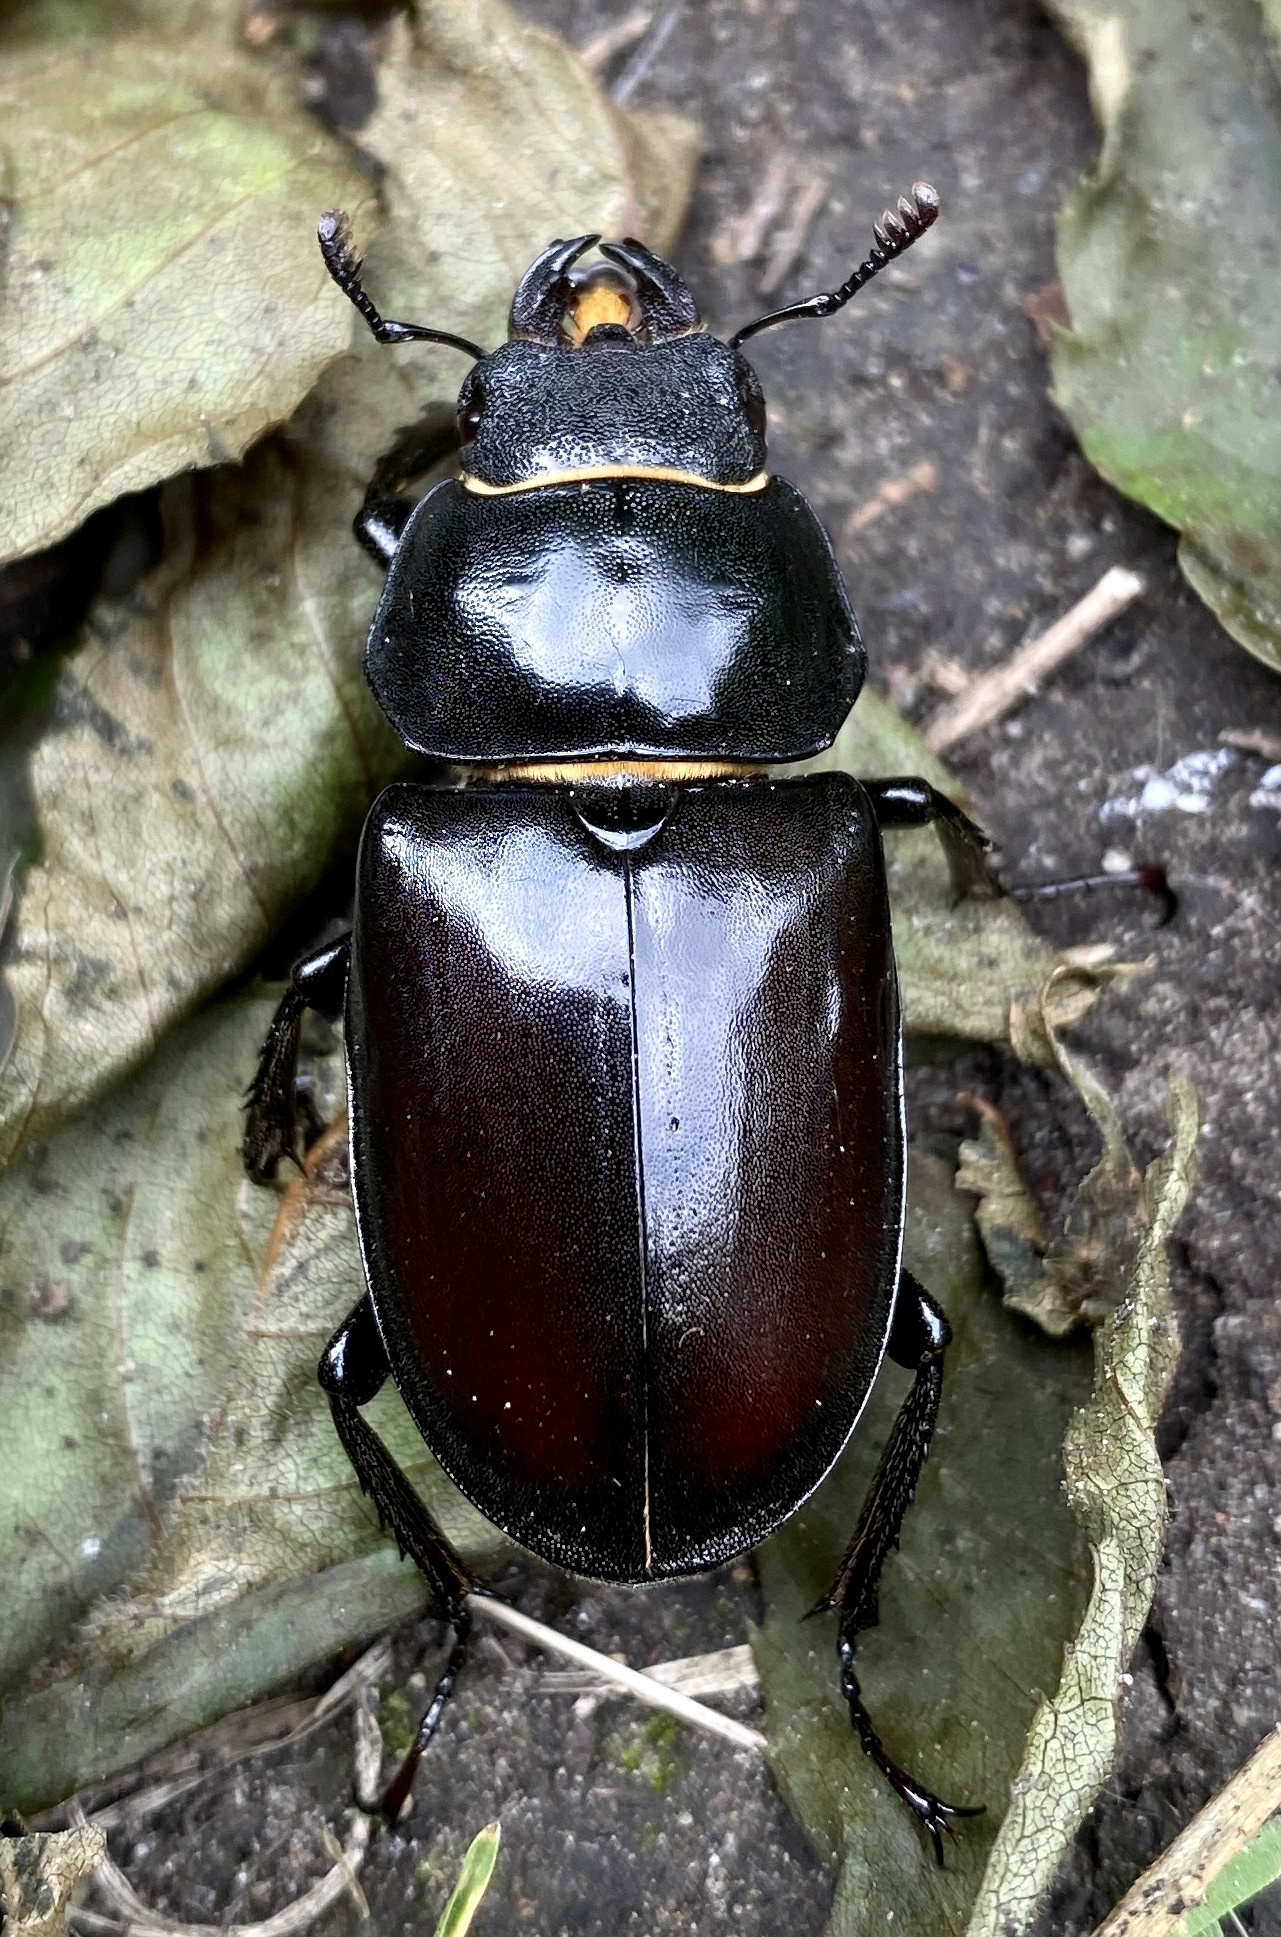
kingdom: Animalia
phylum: Arthropoda
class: Insecta
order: Coleoptera
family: Lucanidae
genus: Lucanus
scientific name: Lucanus cervus
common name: Stag beetle
